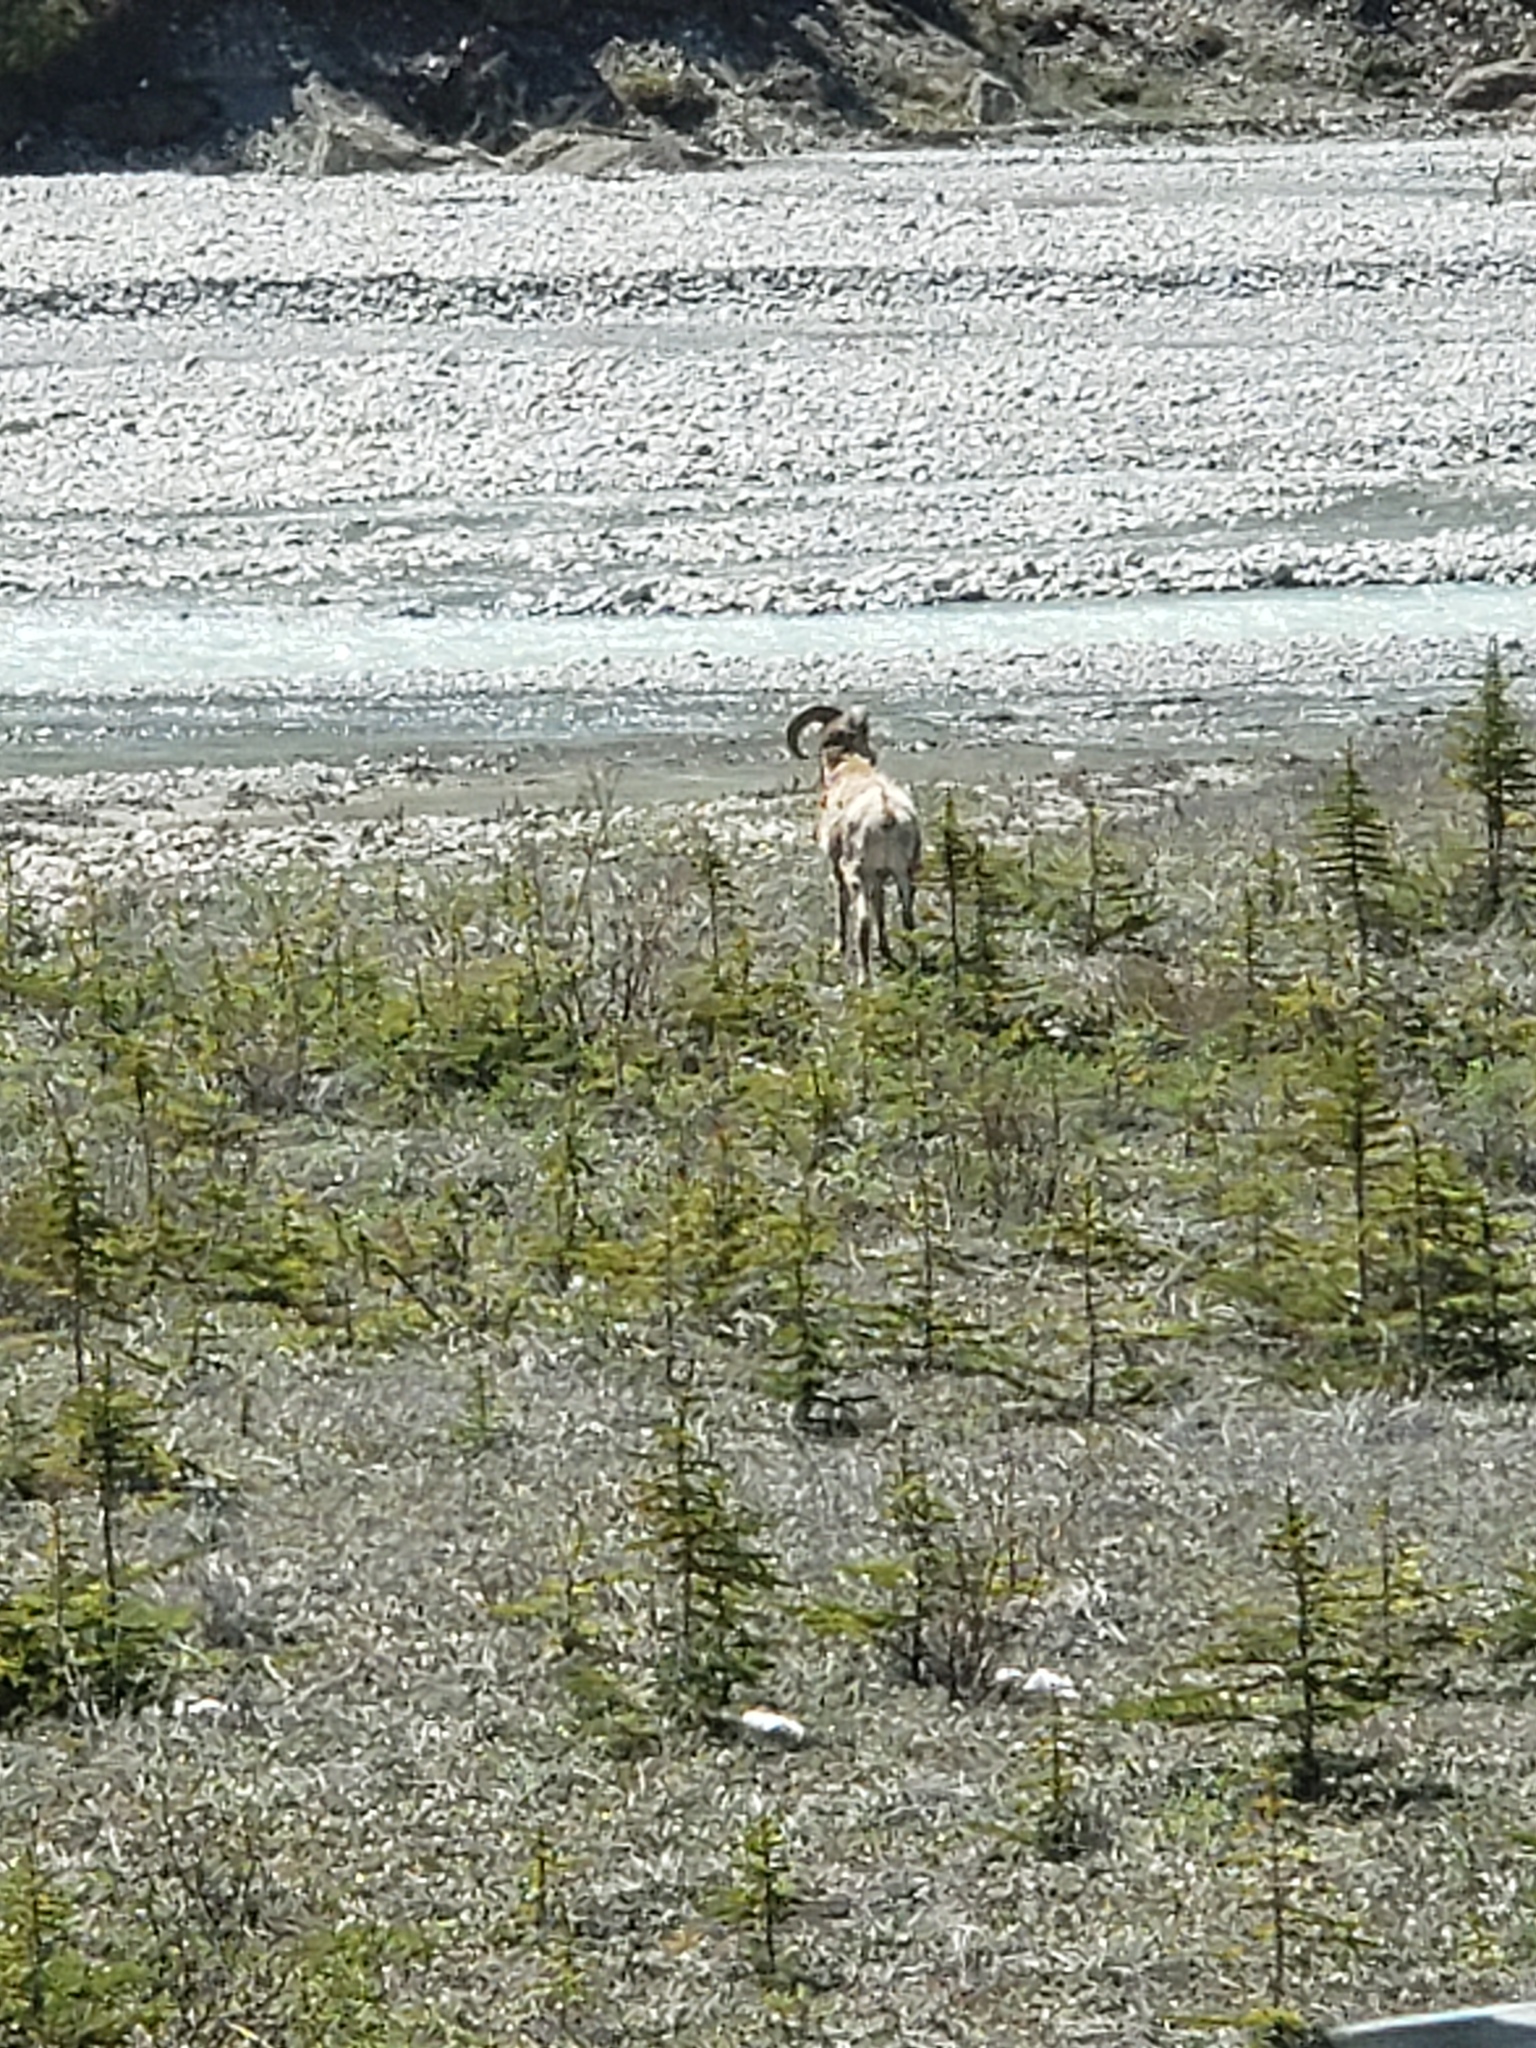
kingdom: Animalia
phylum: Chordata
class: Mammalia
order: Artiodactyla
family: Bovidae
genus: Ovis
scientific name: Ovis canadensis
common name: Bighorn sheep
